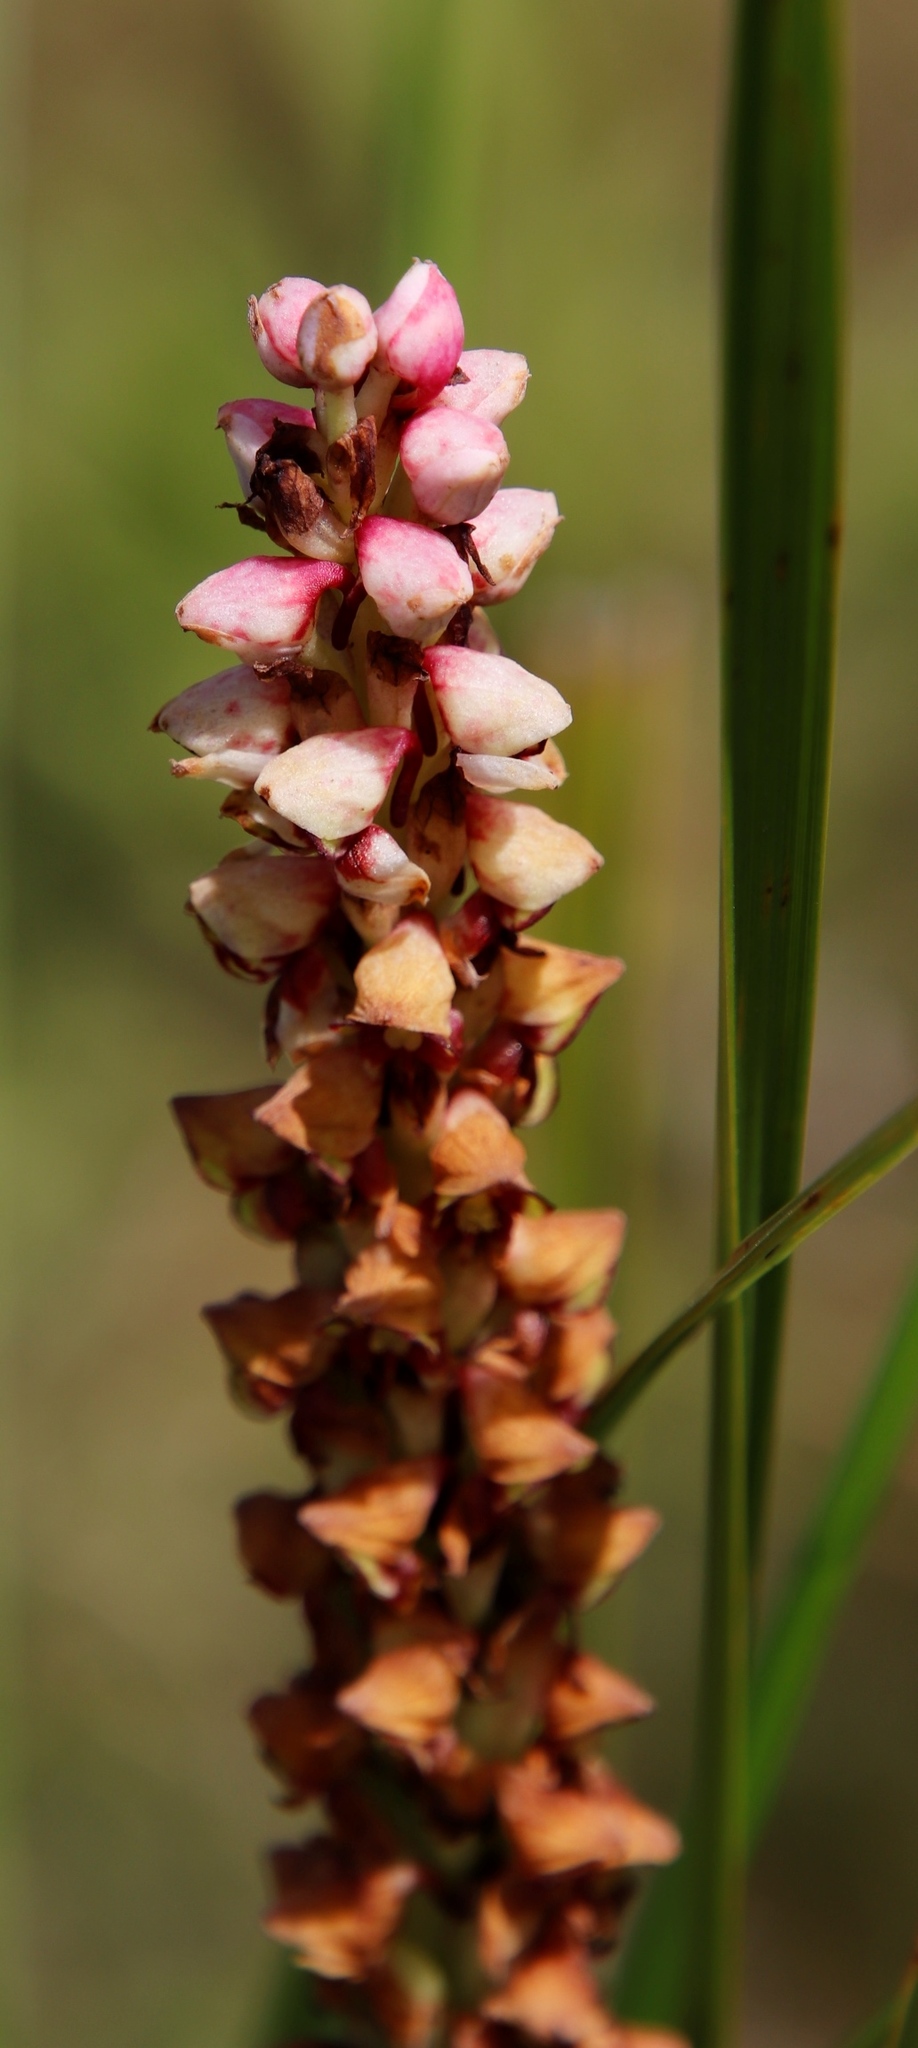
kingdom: Plantae
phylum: Tracheophyta
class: Liliopsida
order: Asparagales
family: Orchidaceae
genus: Disa
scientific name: Disa versicolor
